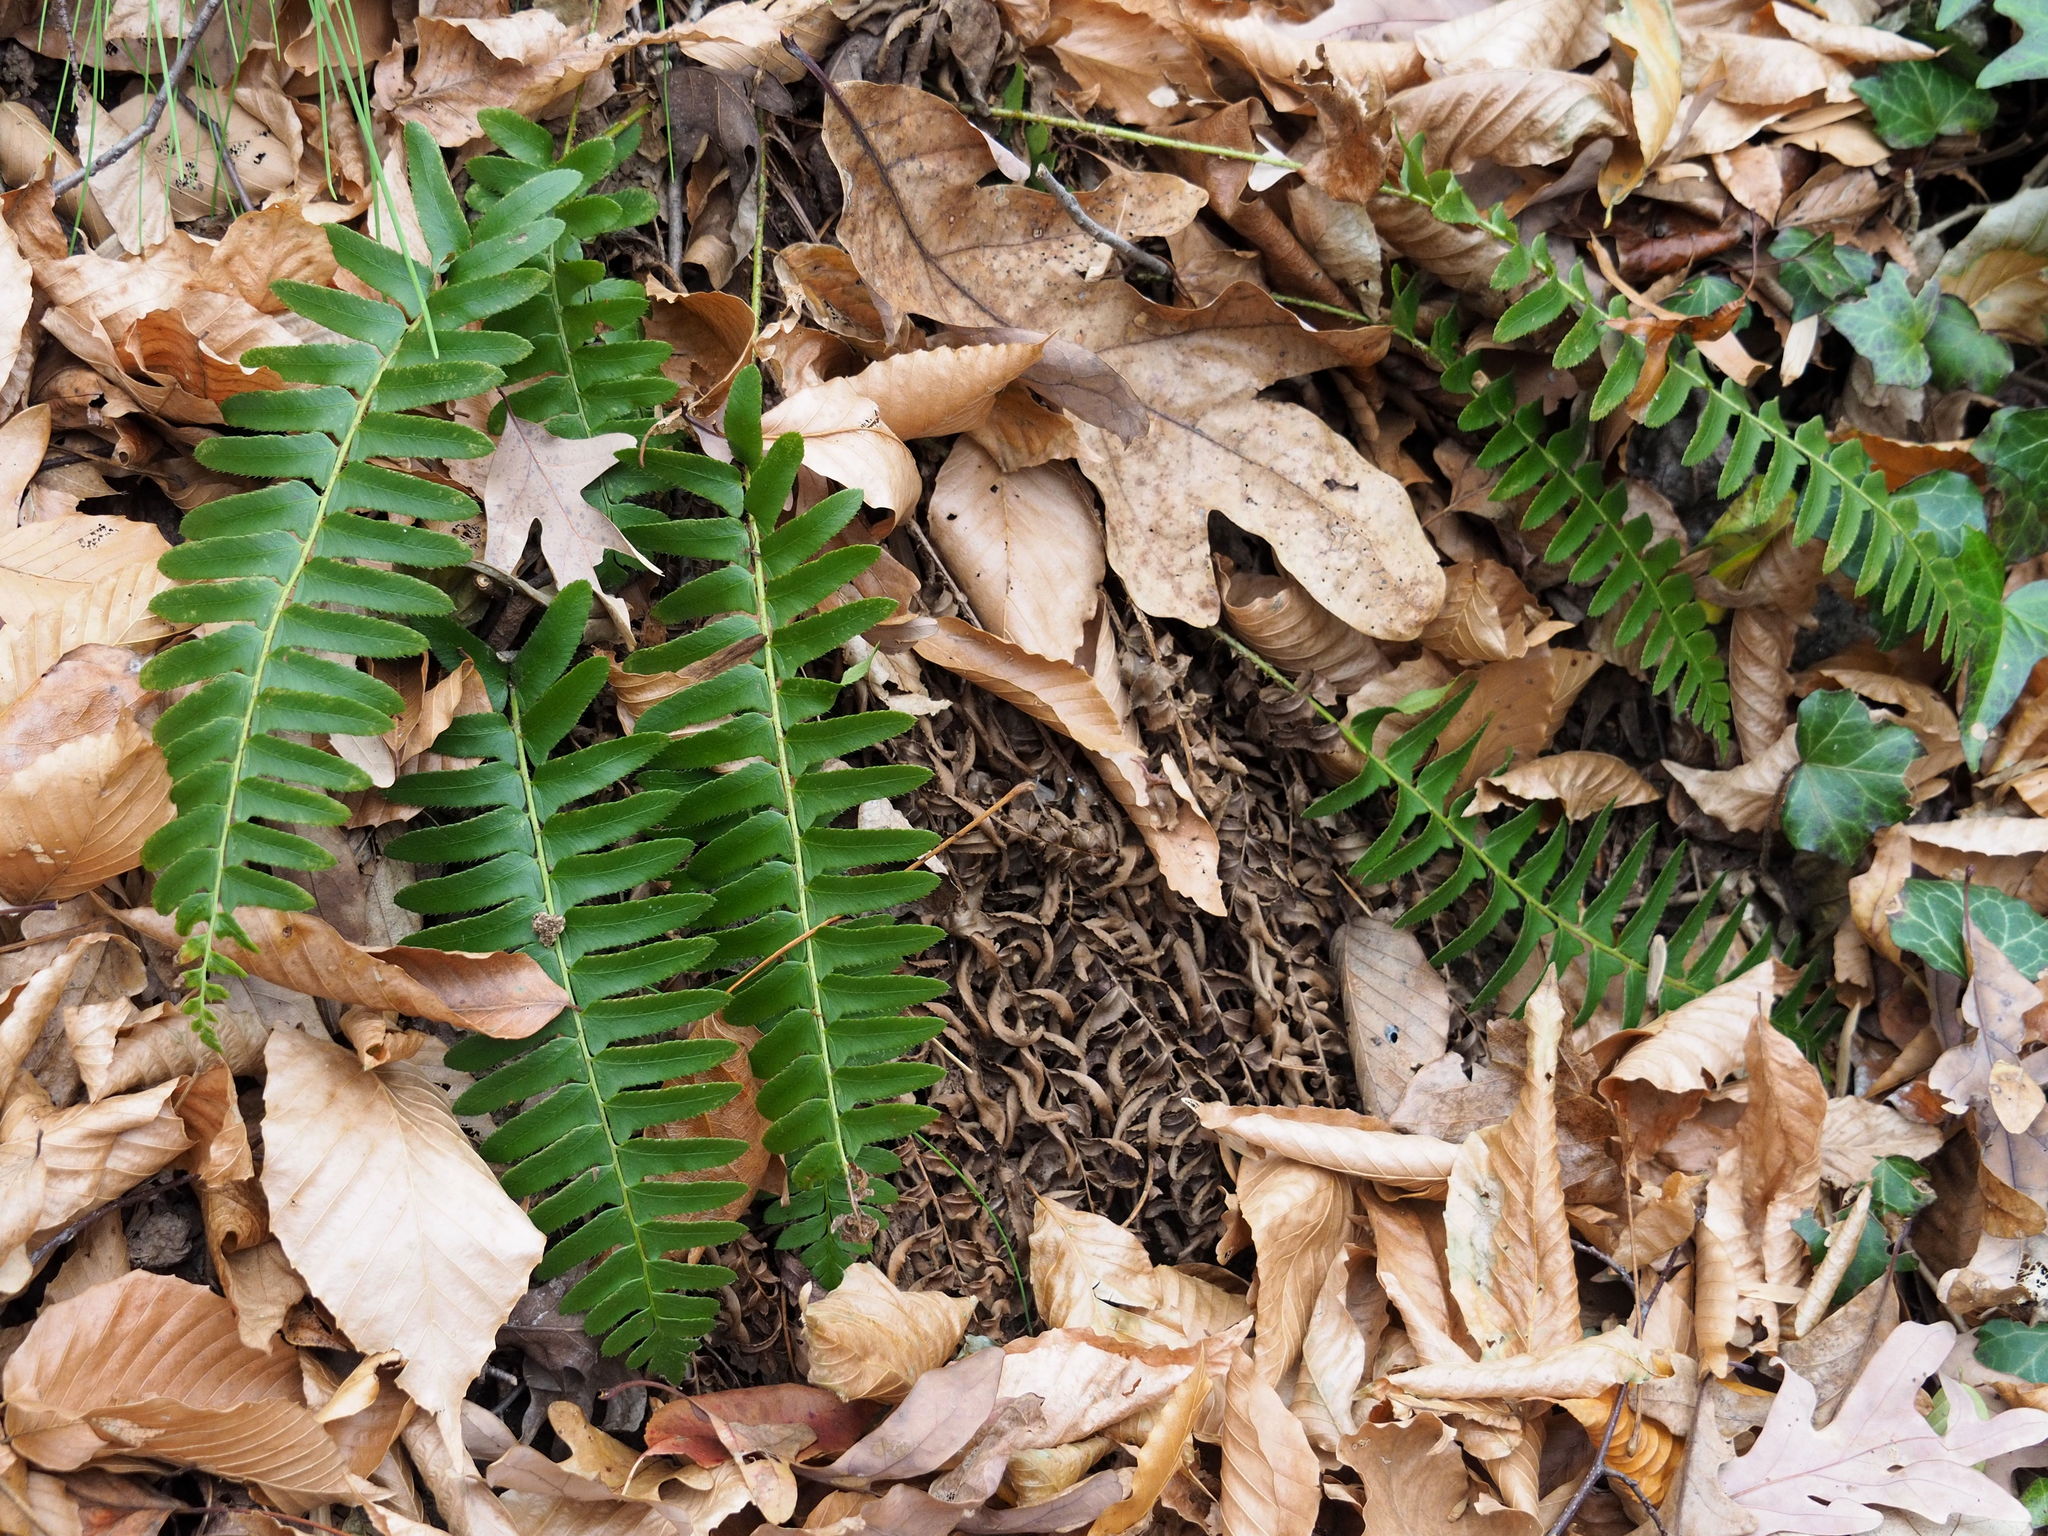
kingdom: Plantae
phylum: Tracheophyta
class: Polypodiopsida
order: Polypodiales
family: Dryopteridaceae
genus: Polystichum
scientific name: Polystichum acrostichoides
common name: Christmas fern
